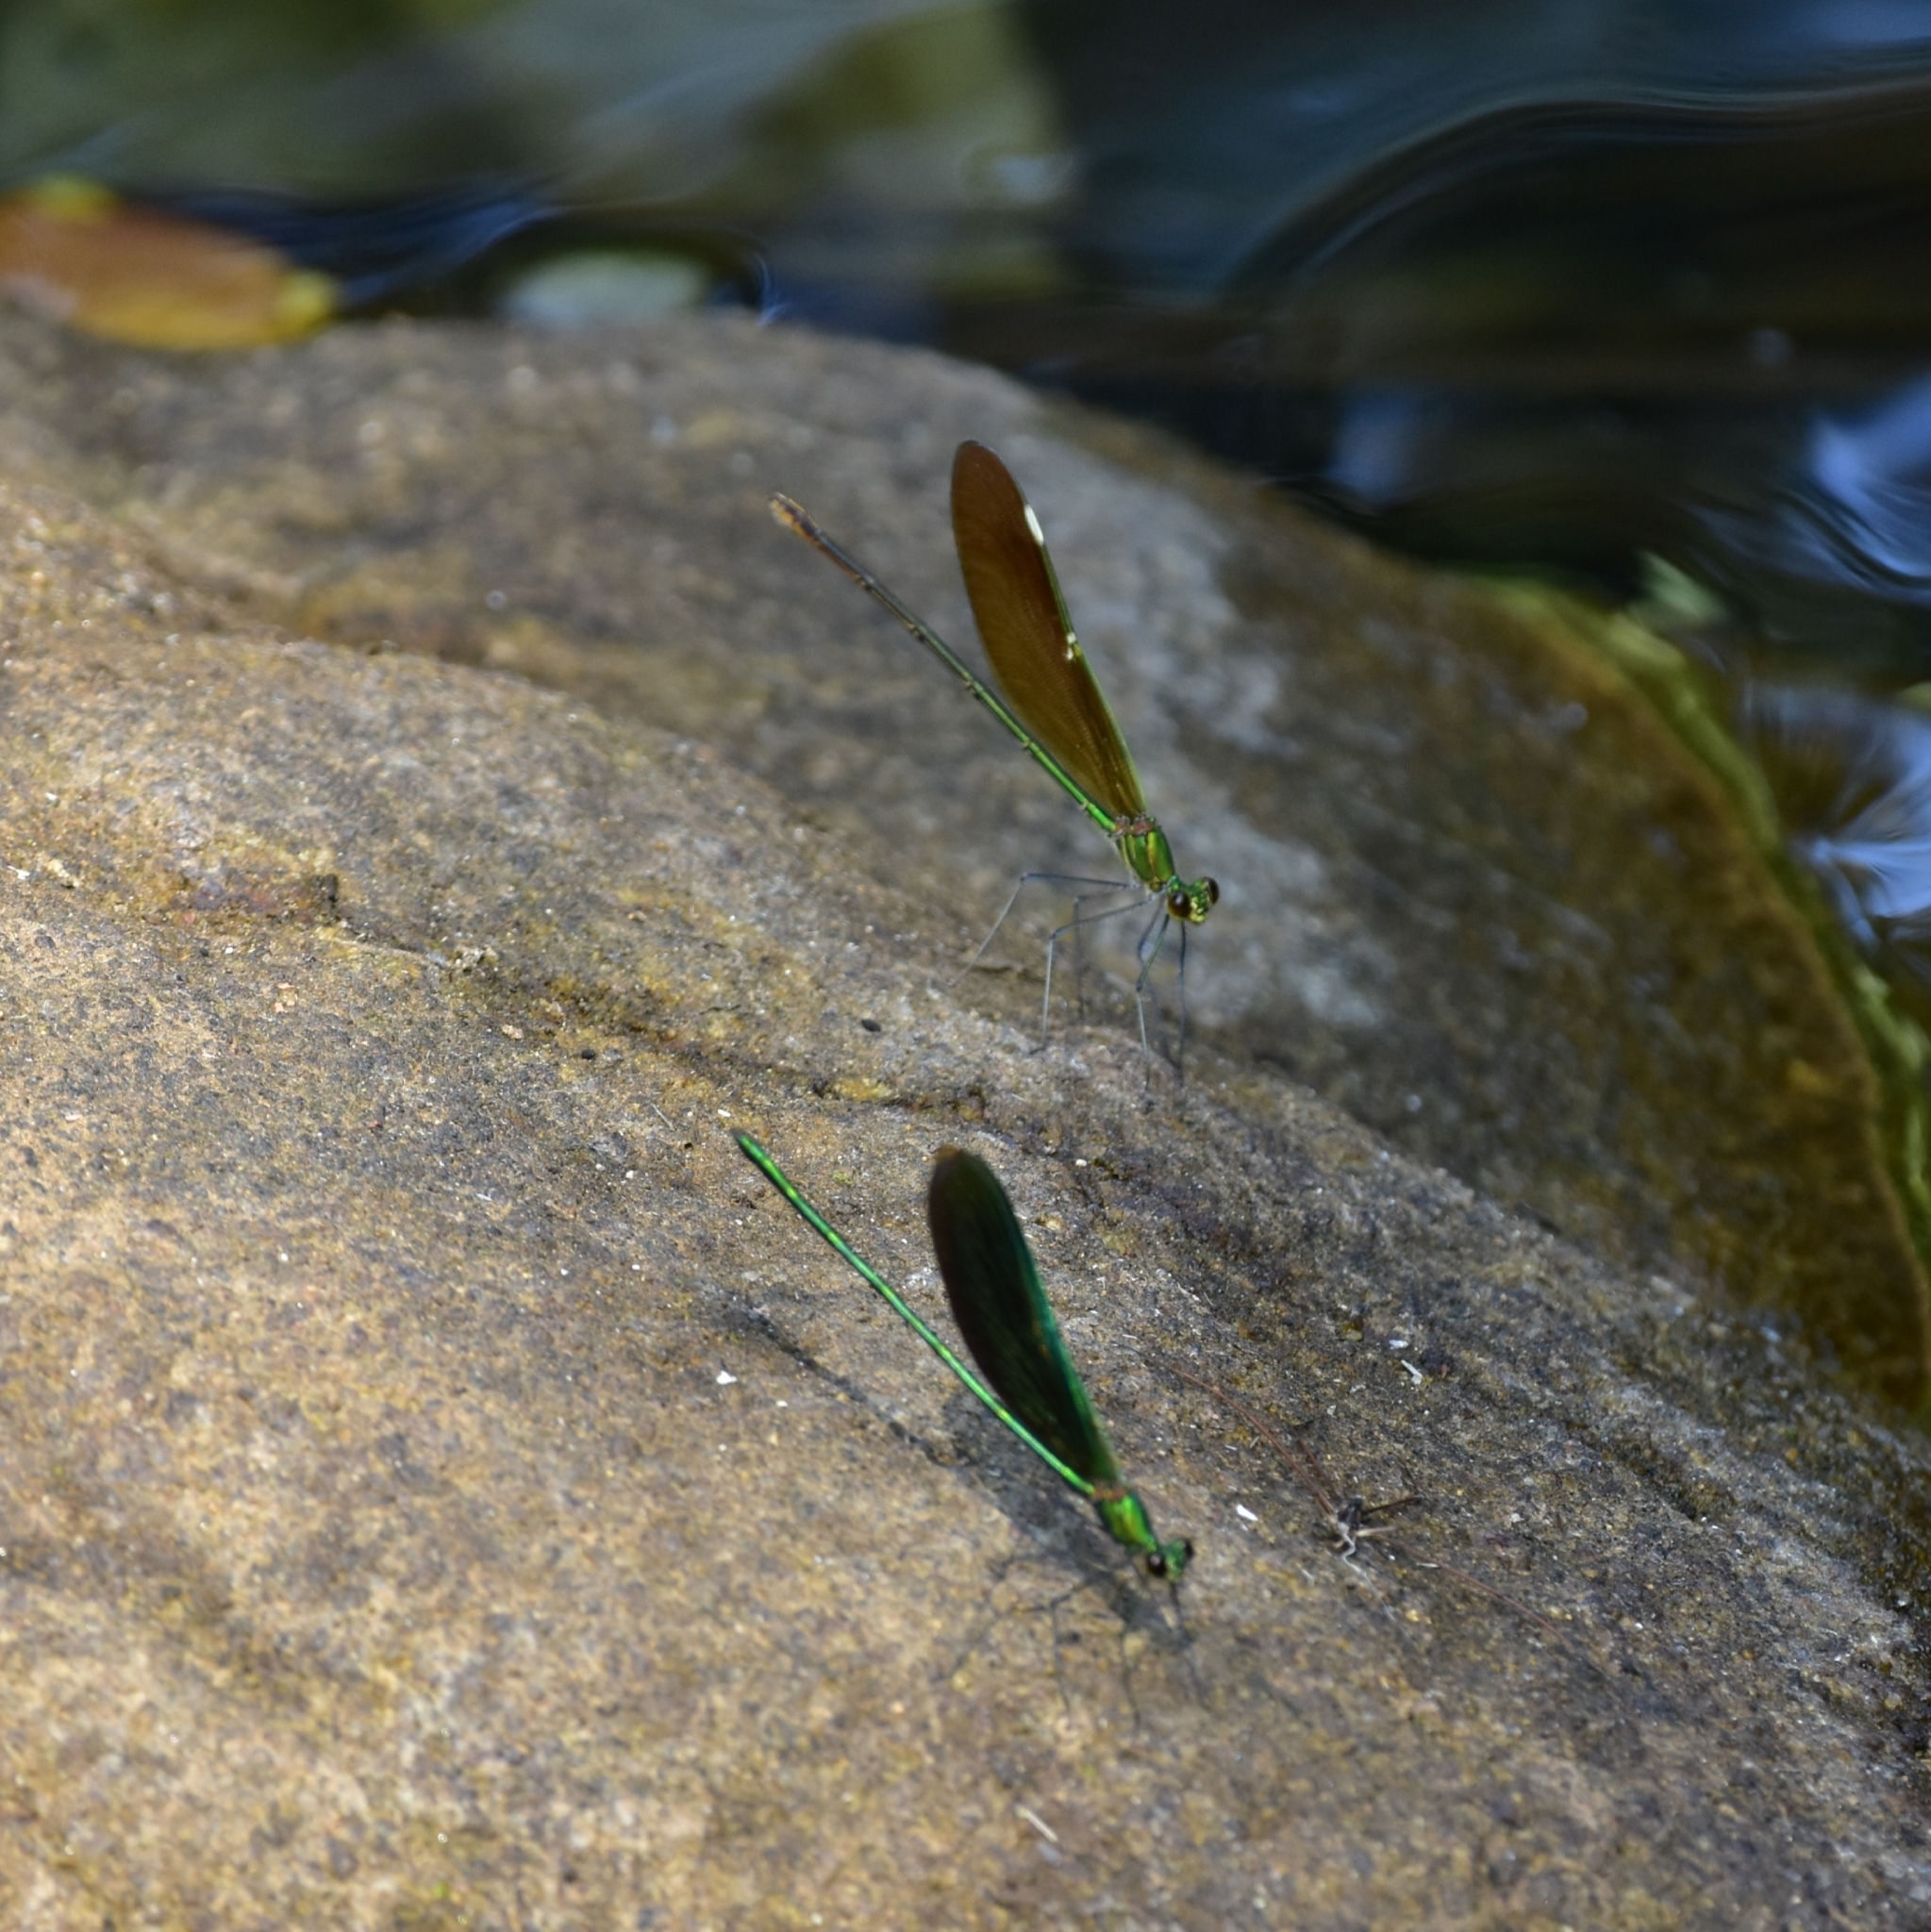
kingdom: Animalia
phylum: Arthropoda
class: Insecta
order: Odonata
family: Calopterygidae
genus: Neurobasis
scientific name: Neurobasis chinensis
